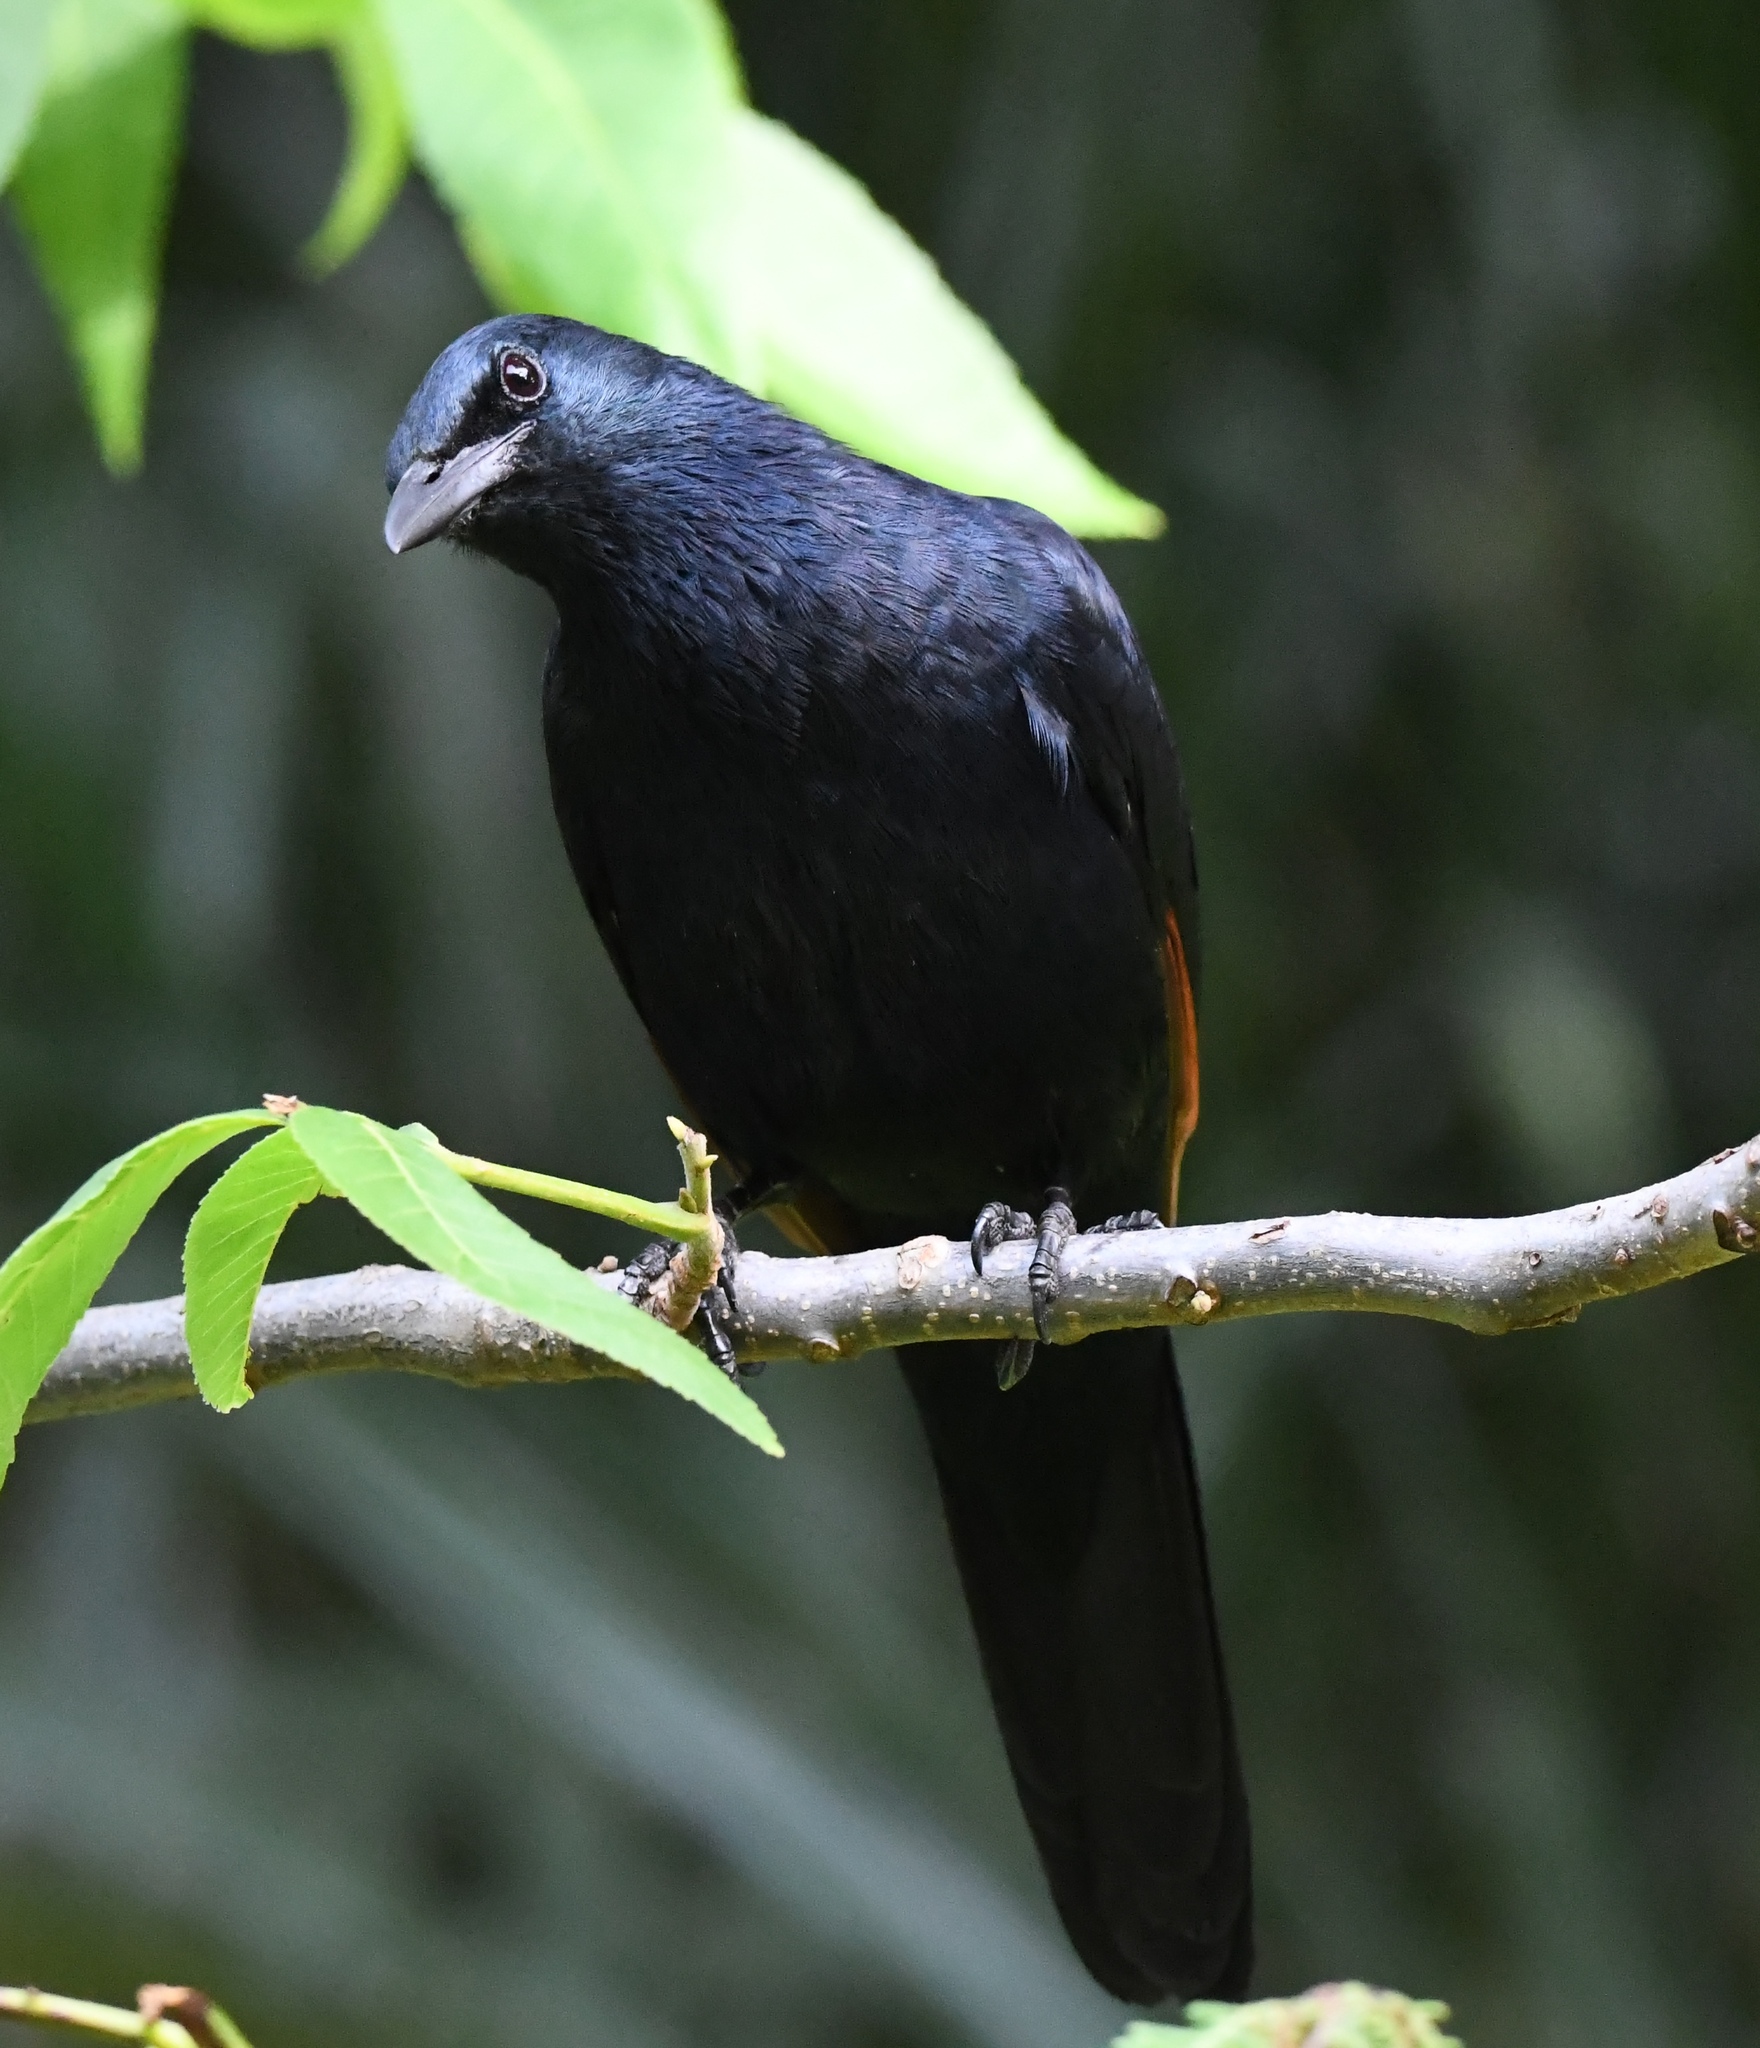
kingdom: Animalia
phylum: Chordata
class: Aves
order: Passeriformes
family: Sturnidae
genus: Onychognathus
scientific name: Onychognathus morio
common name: Red-winged starling
